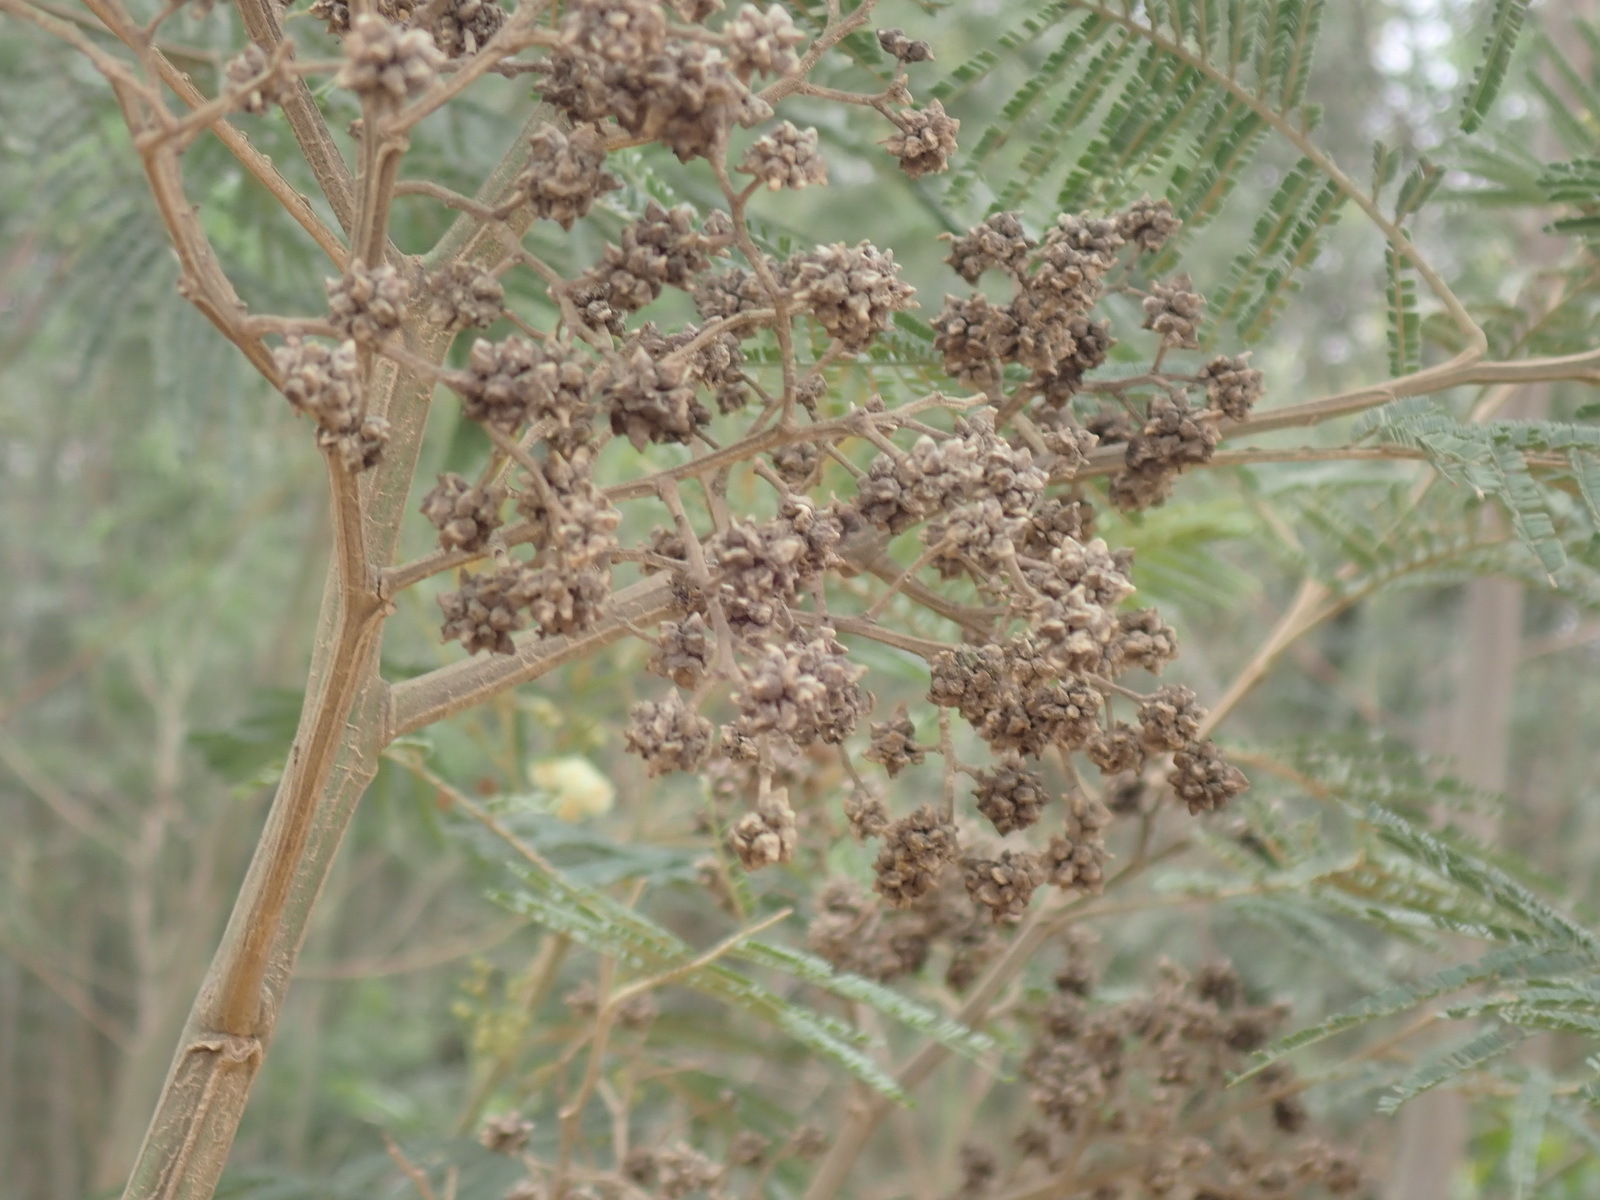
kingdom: Animalia
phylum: Arthropoda
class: Insecta
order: Diptera
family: Cecidomyiidae
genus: Dasineura
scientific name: Dasineura rubiformis
